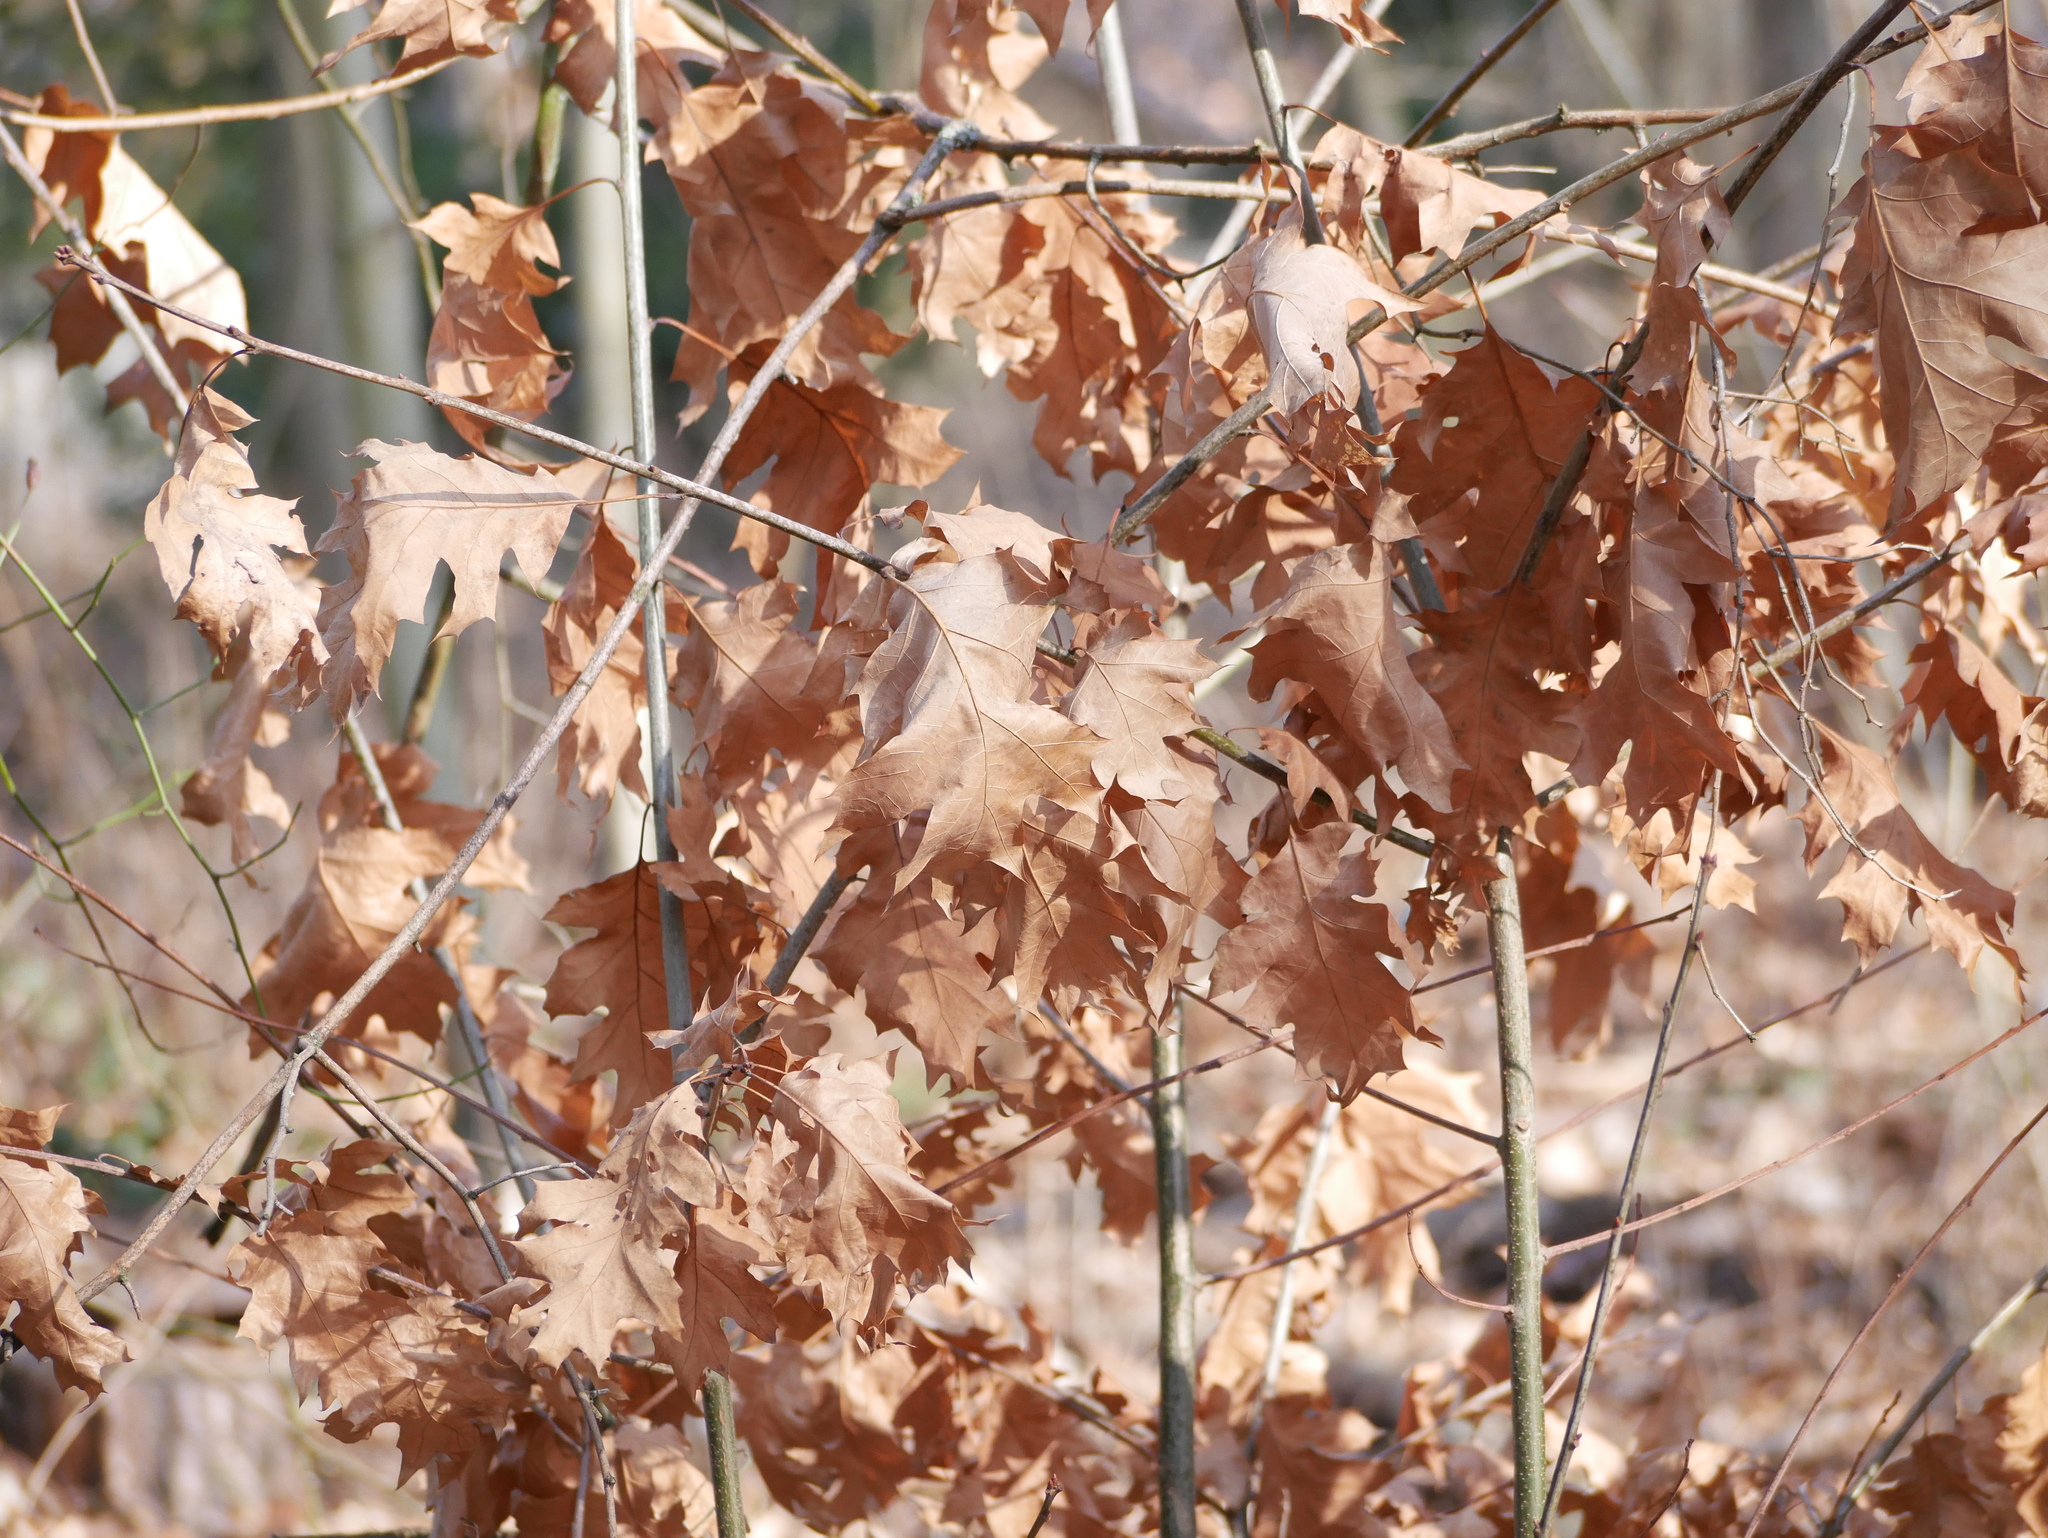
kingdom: Plantae
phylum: Tracheophyta
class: Magnoliopsida
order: Fagales
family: Fagaceae
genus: Quercus
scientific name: Quercus rubra
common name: Red oak
